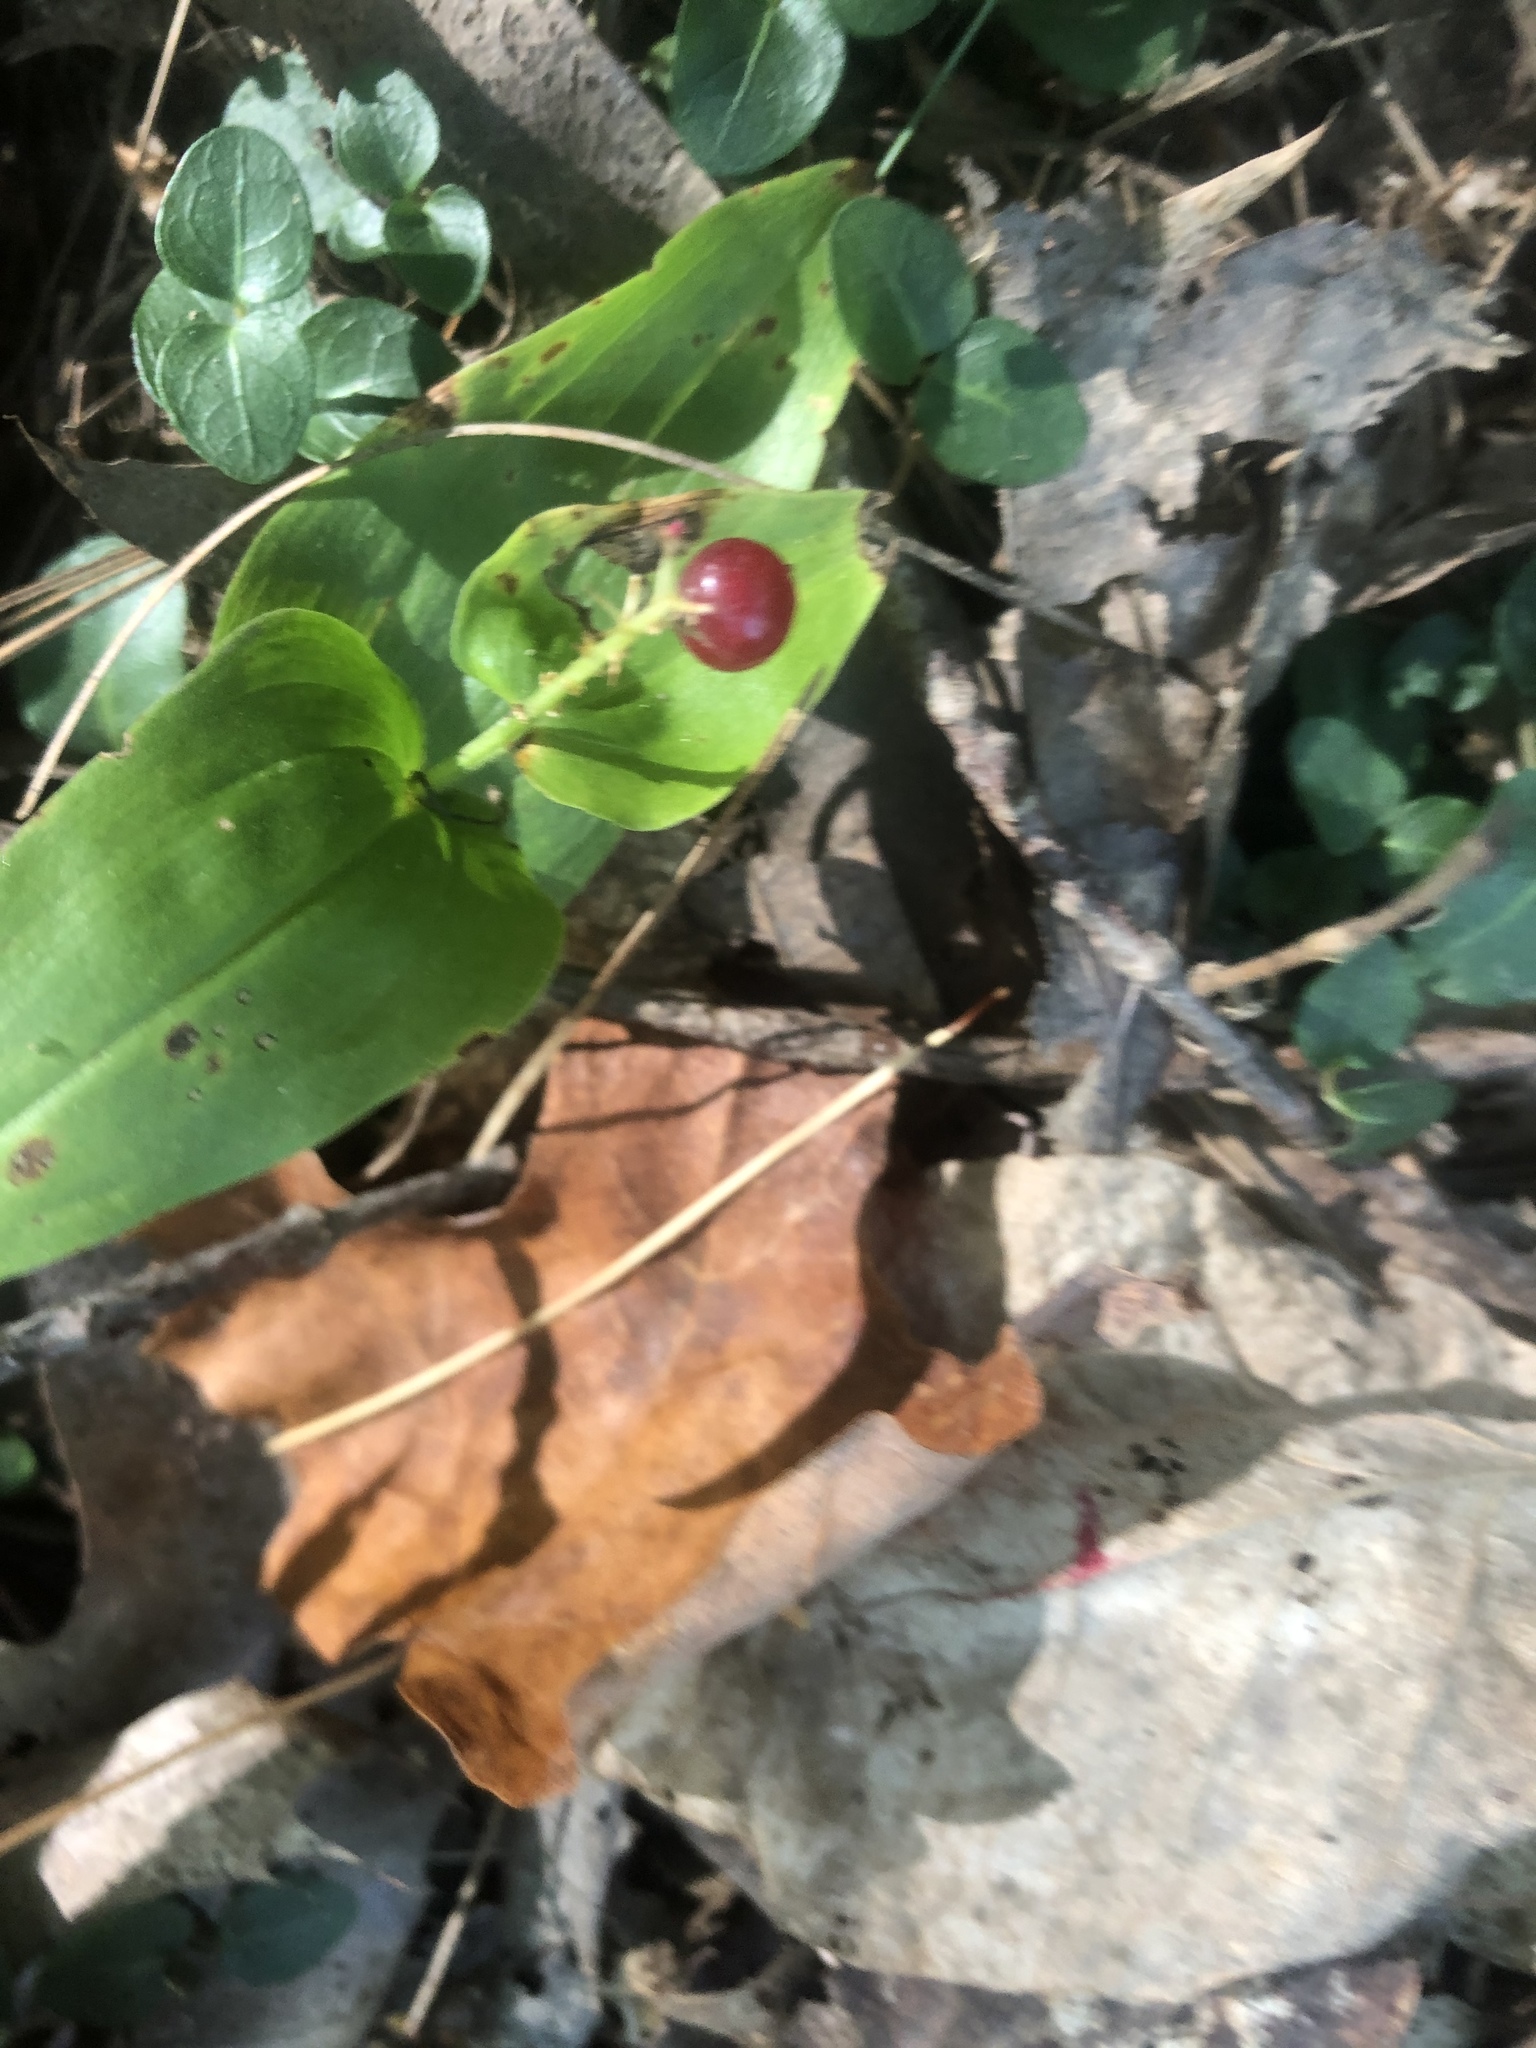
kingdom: Plantae
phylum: Tracheophyta
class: Liliopsida
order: Asparagales
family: Asparagaceae
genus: Maianthemum
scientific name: Maianthemum canadense
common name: False lily-of-the-valley
